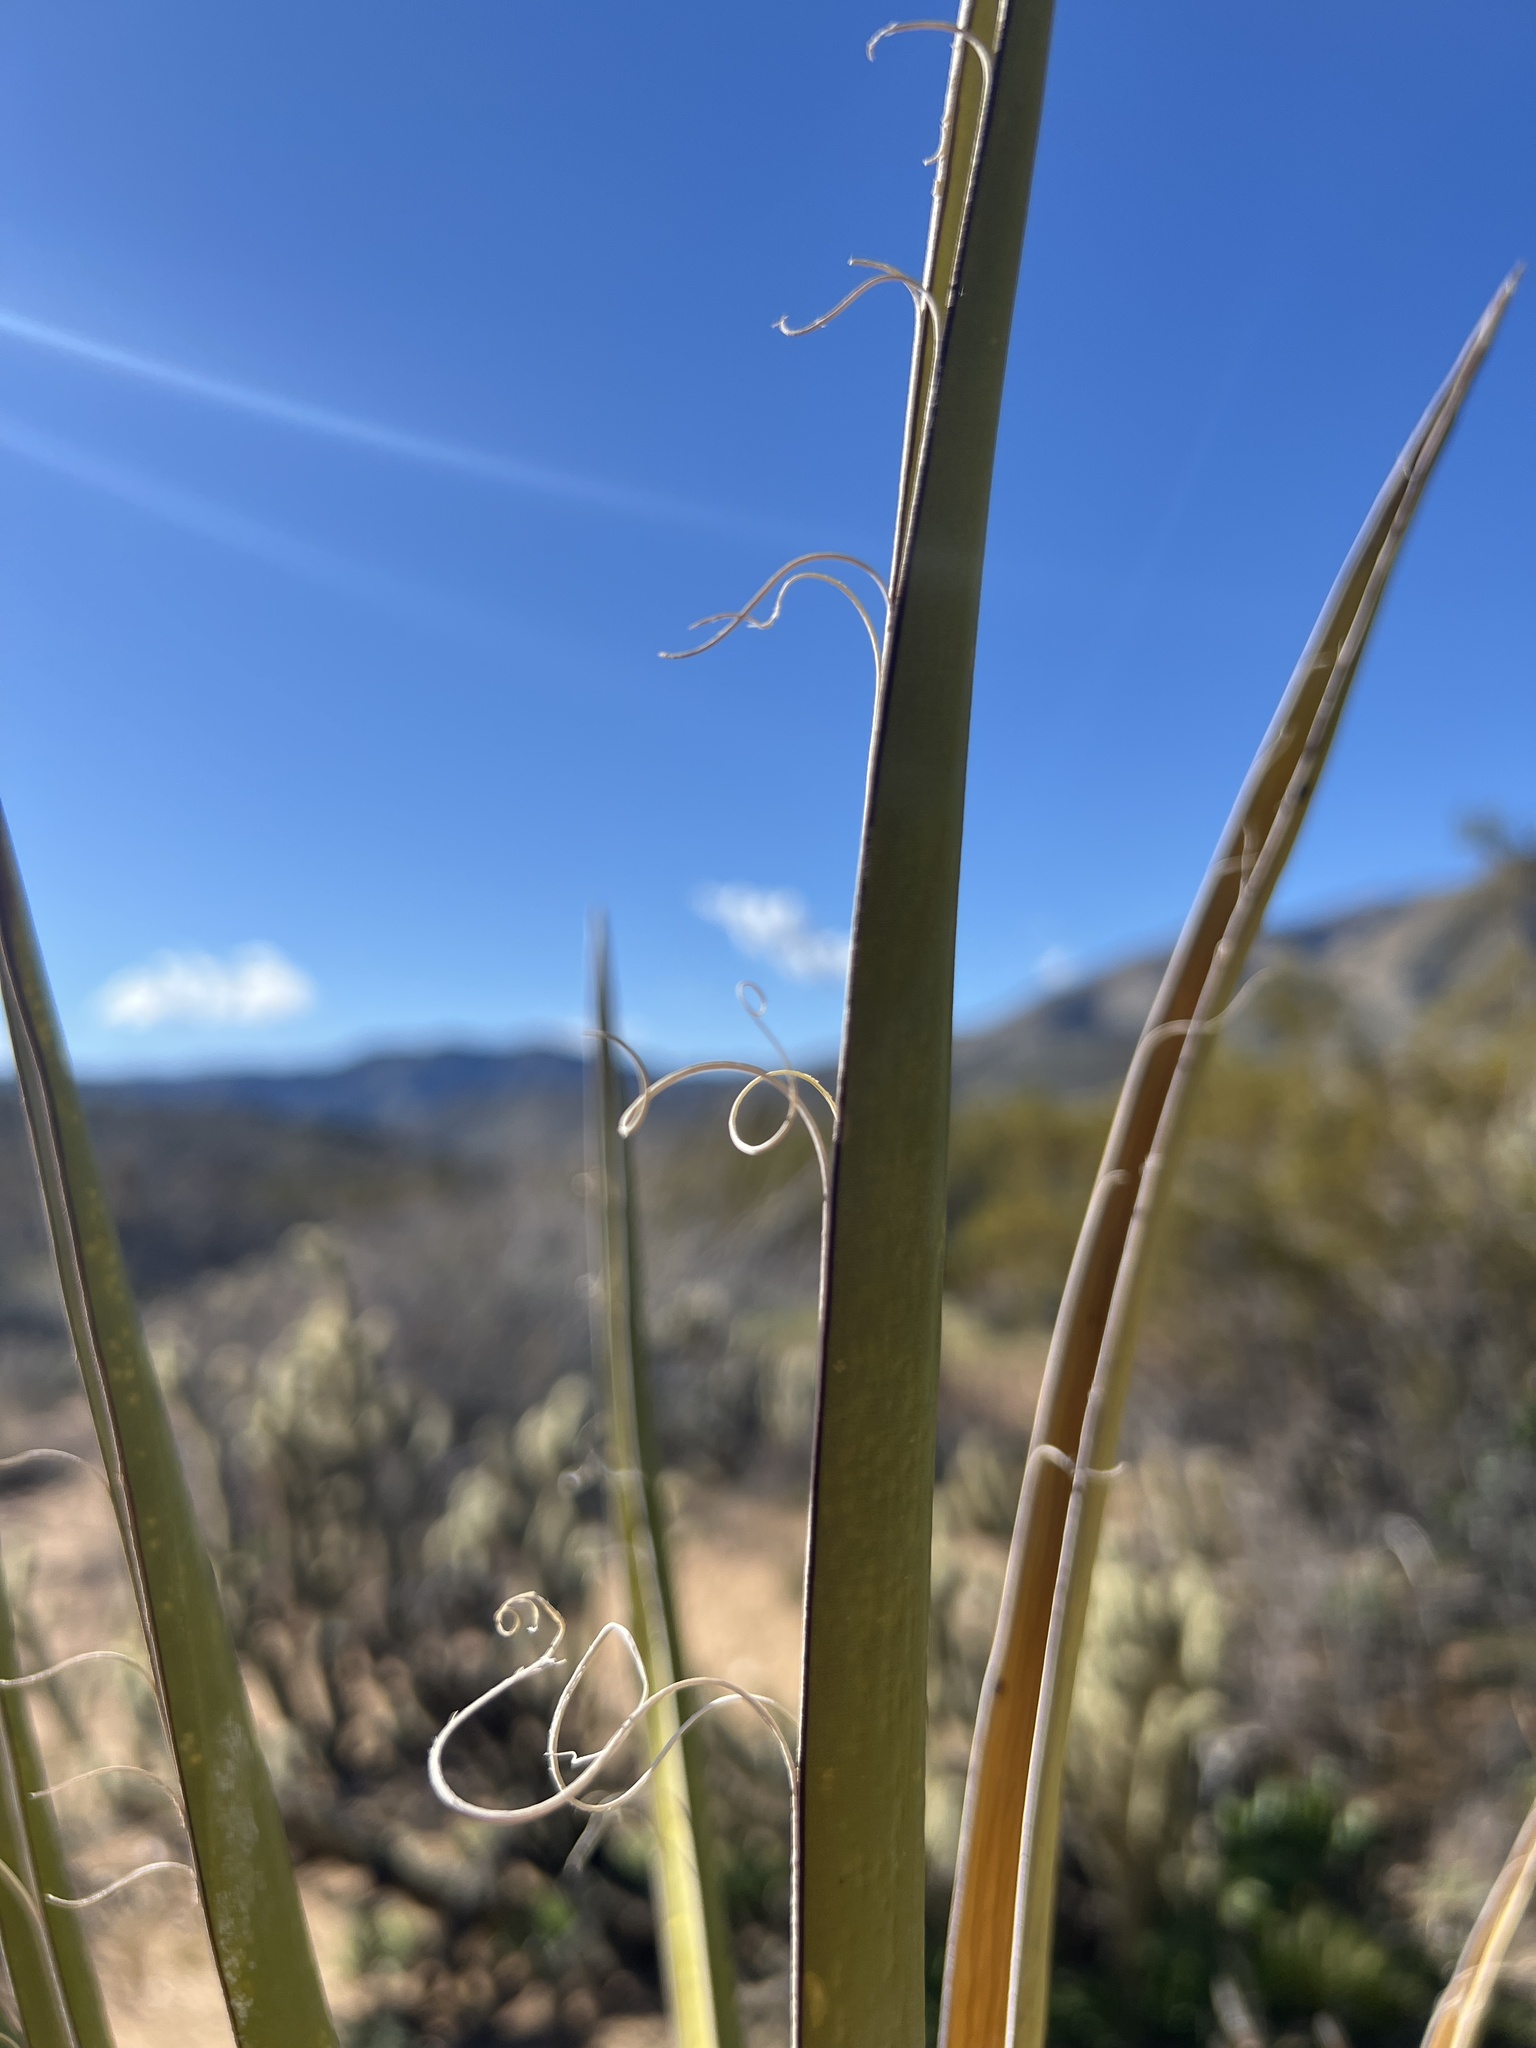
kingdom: Plantae
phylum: Tracheophyta
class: Liliopsida
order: Asparagales
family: Asparagaceae
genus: Yucca
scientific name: Yucca schidigera
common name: Mojave yucca
